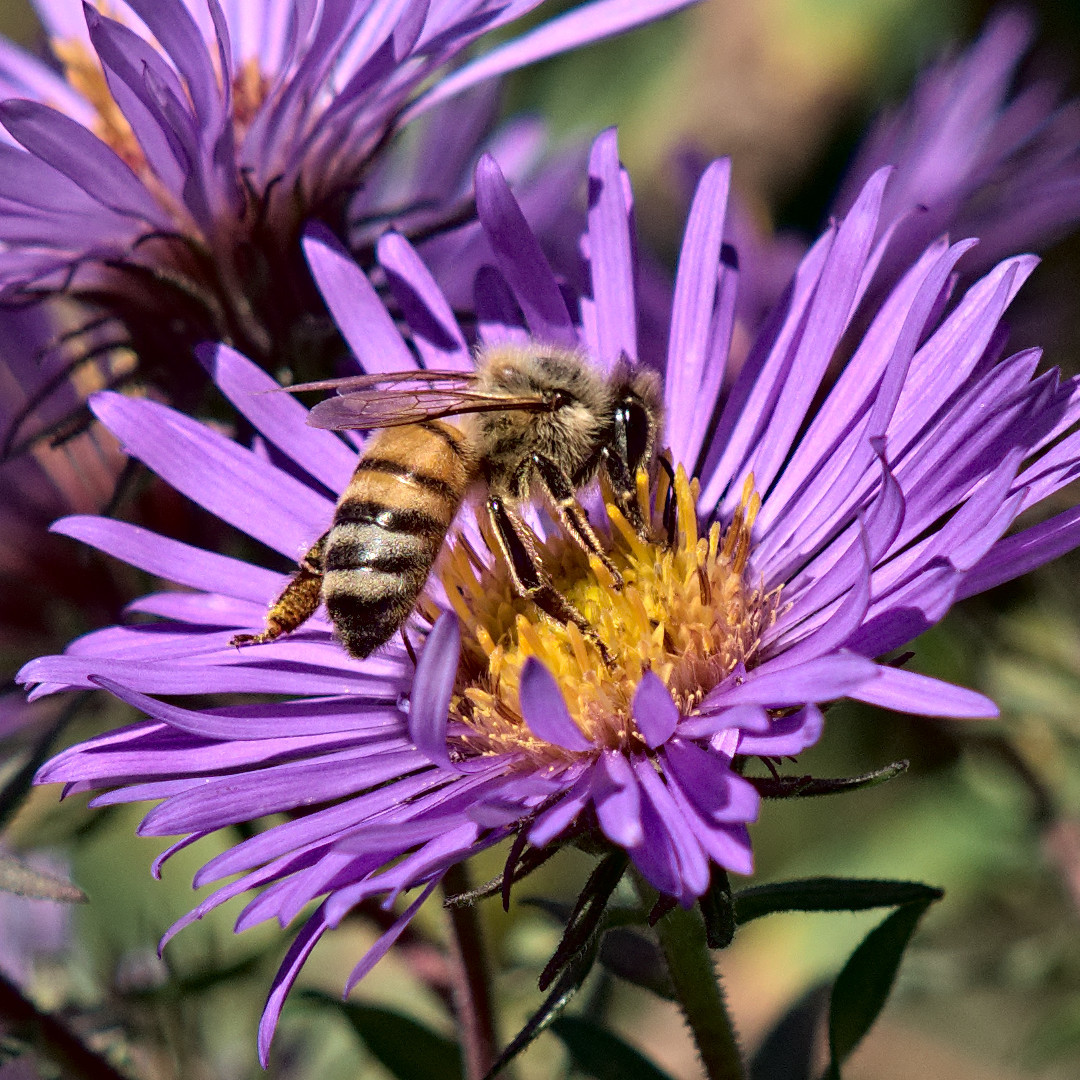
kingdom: Animalia
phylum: Arthropoda
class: Insecta
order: Hymenoptera
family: Apidae
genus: Apis
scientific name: Apis mellifera
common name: Honey bee
